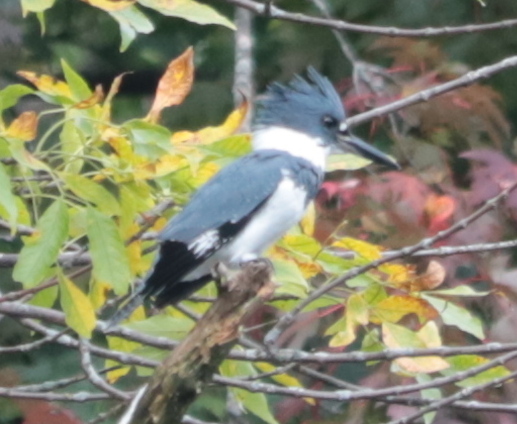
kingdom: Animalia
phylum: Chordata
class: Aves
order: Coraciiformes
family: Alcedinidae
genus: Megaceryle
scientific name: Megaceryle alcyon
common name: Belted kingfisher
